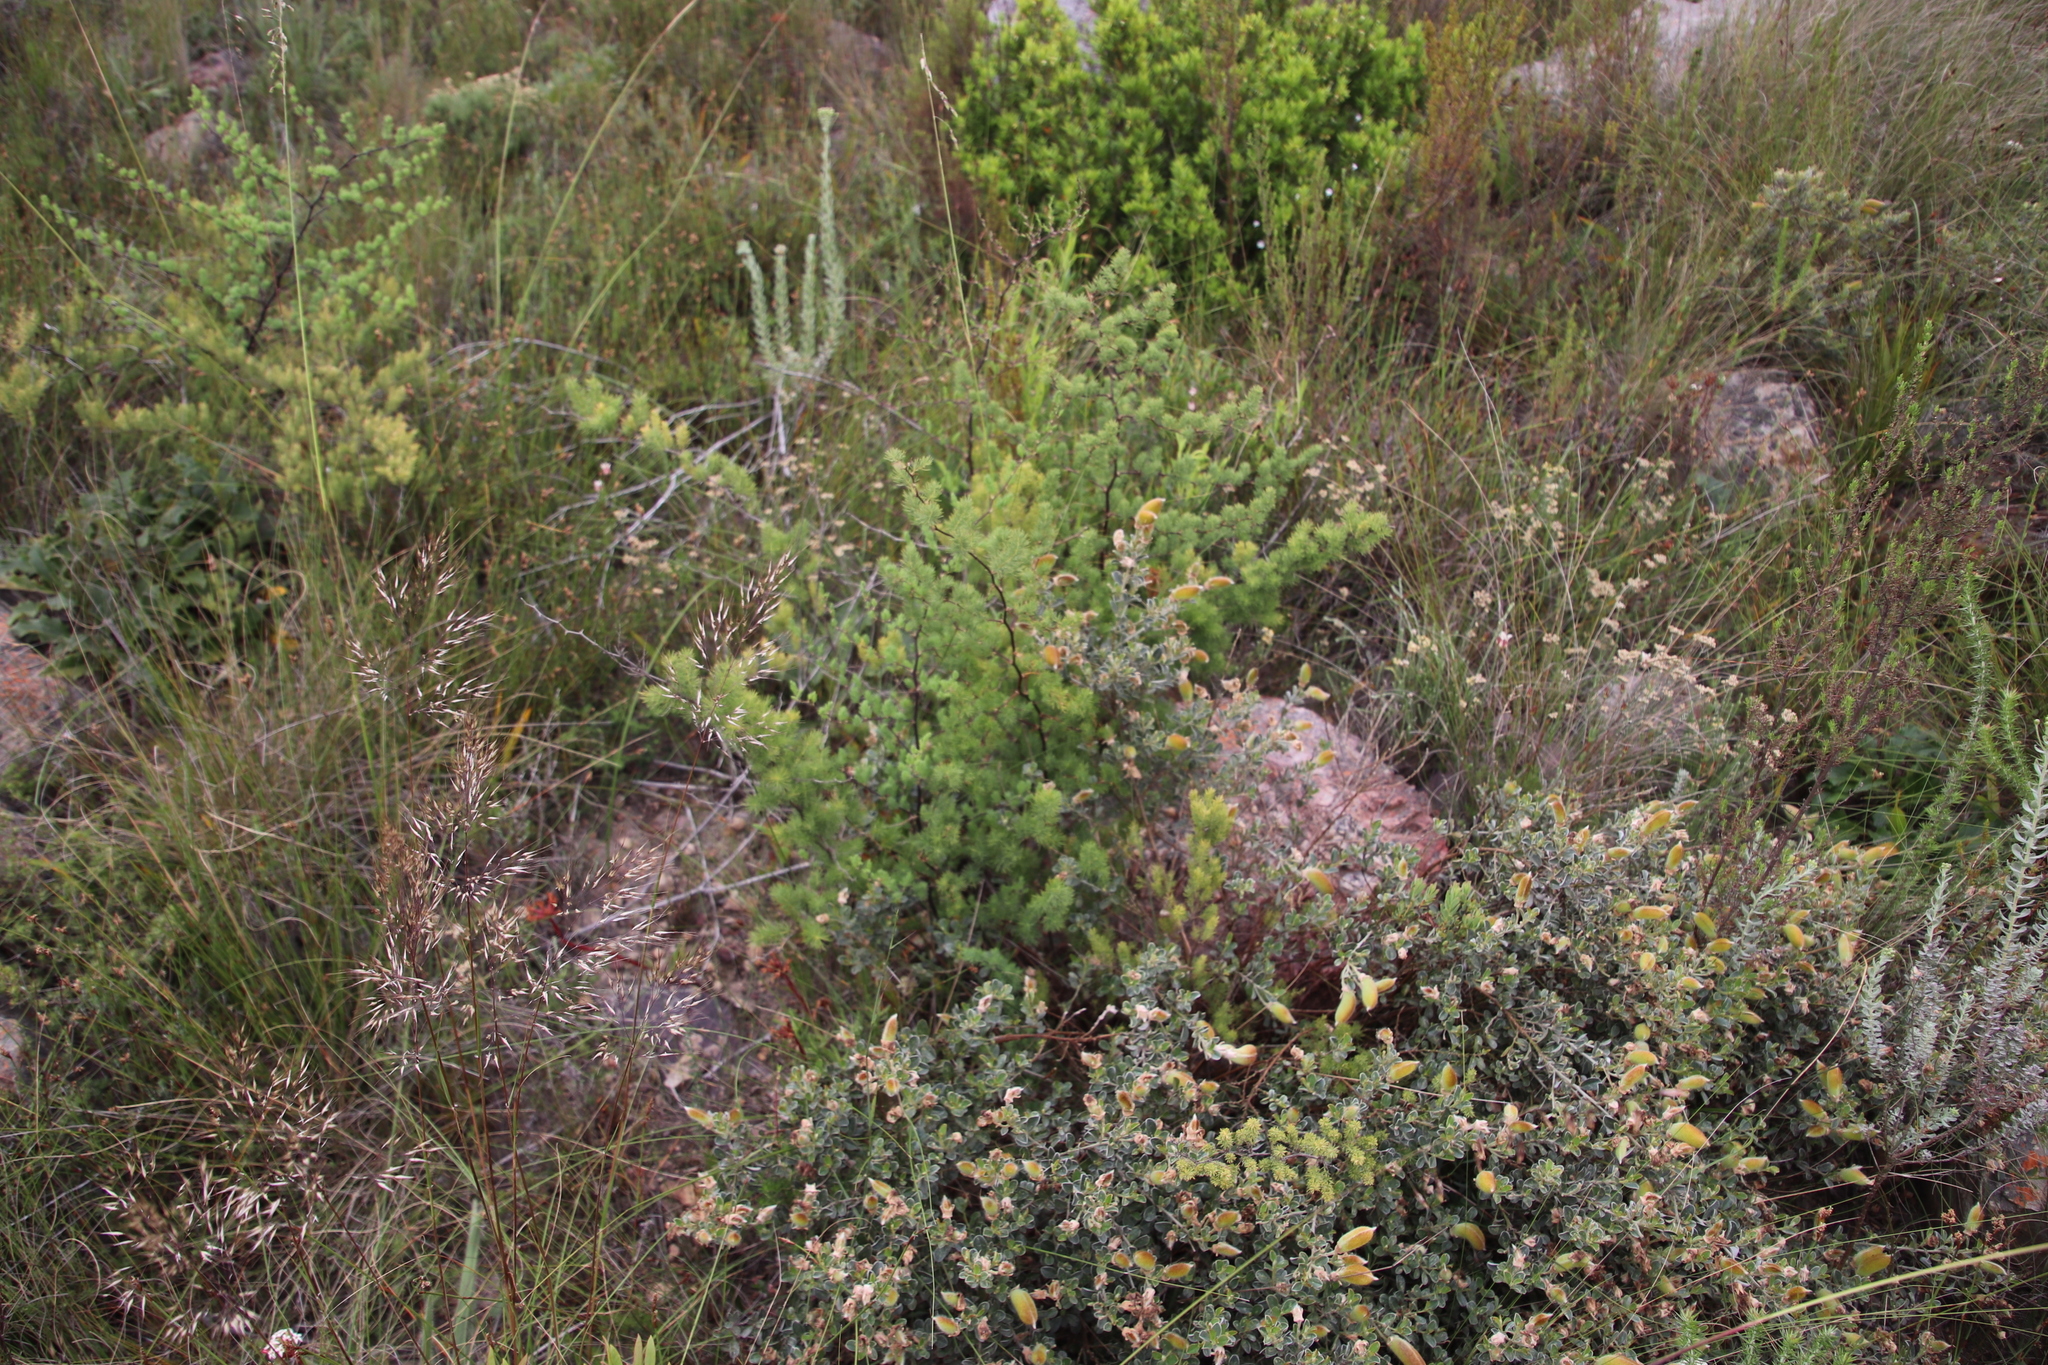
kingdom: Plantae
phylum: Tracheophyta
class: Liliopsida
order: Asparagales
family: Asparagaceae
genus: Asparagus
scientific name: Asparagus rubicundus
